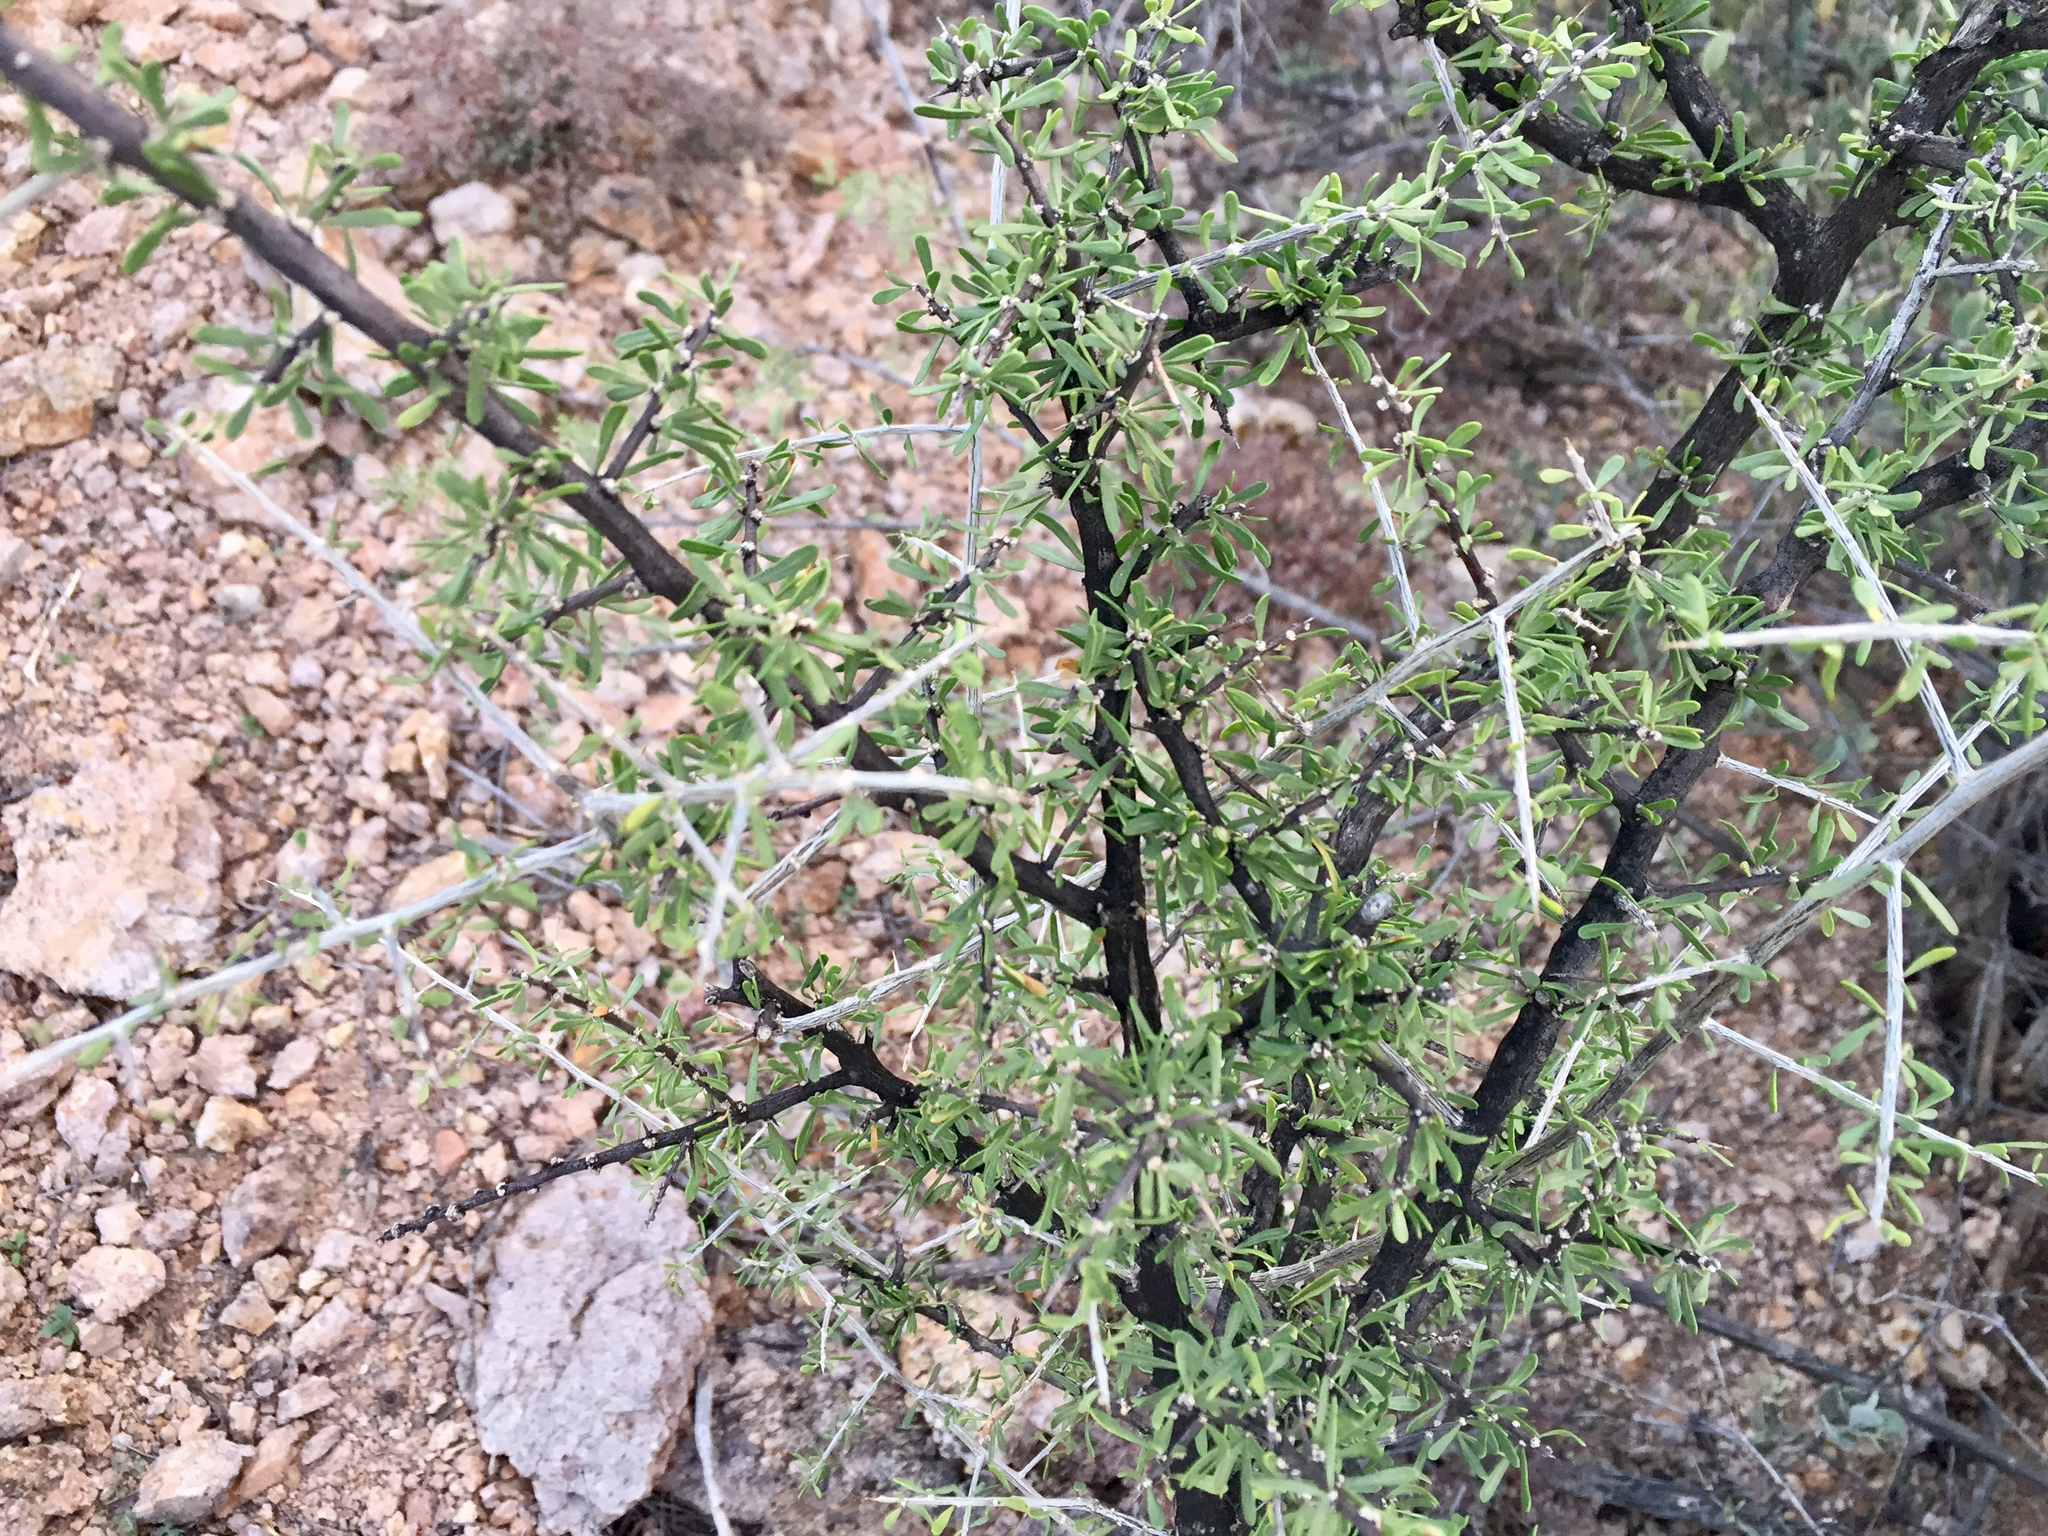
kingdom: Plantae
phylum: Tracheophyta
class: Magnoliopsida
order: Solanales
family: Solanaceae
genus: Lycium
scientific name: Lycium berlandieri
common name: Berlandier wolfberry
